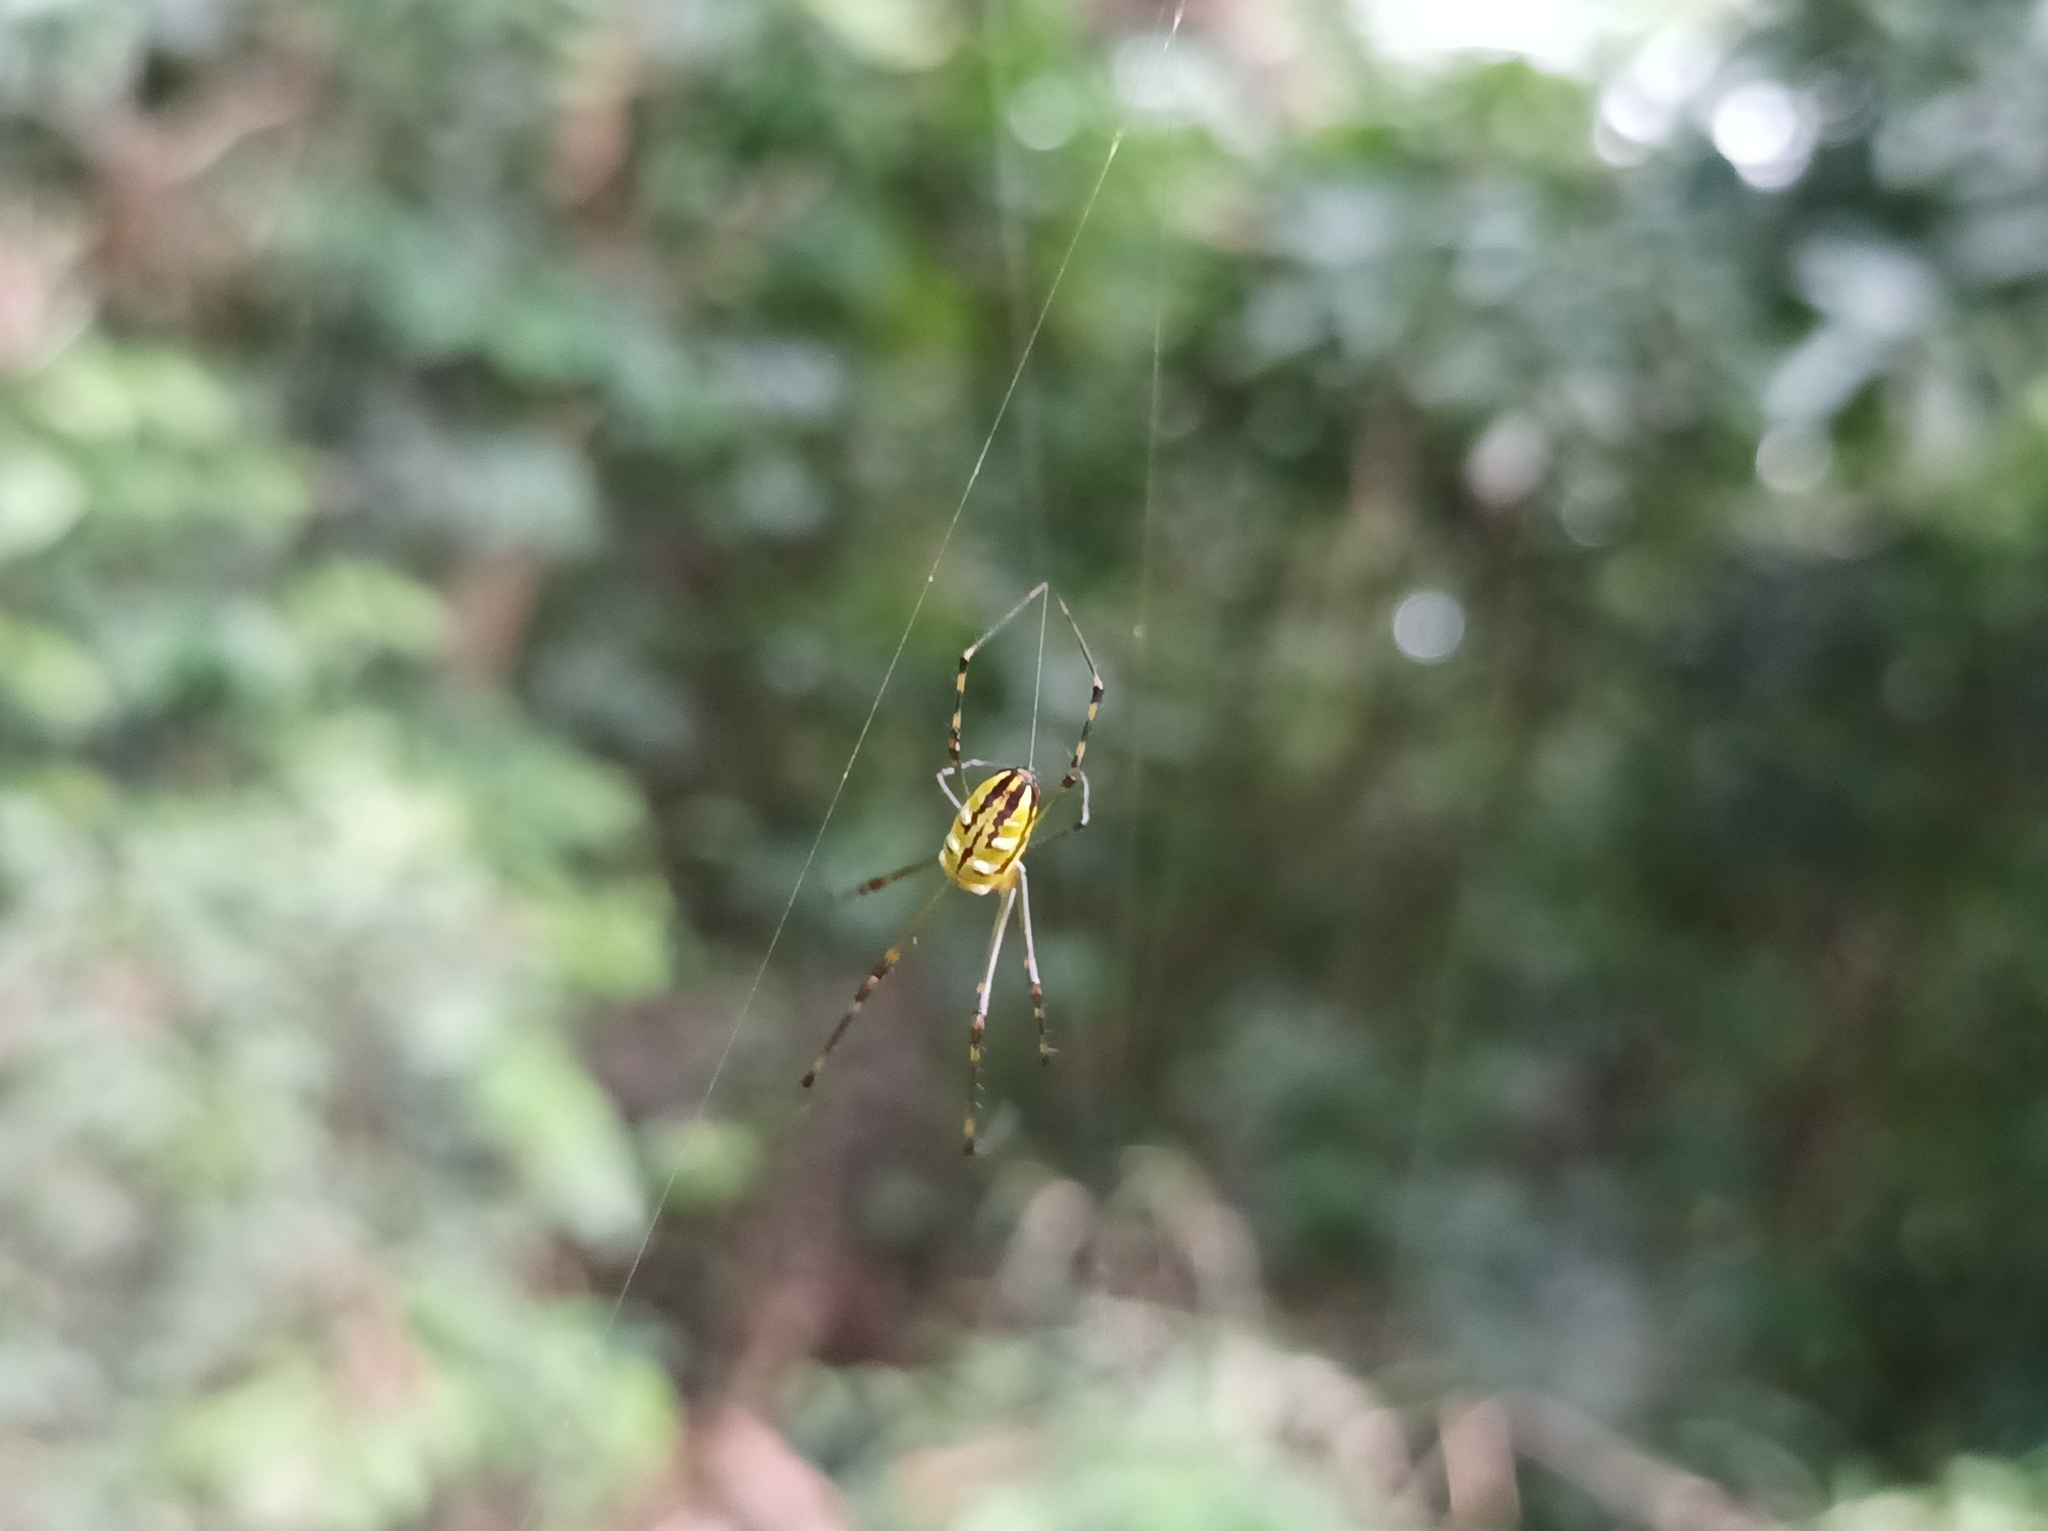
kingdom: Animalia
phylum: Arthropoda
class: Arachnida
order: Araneae
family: Tetragnathidae
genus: Leucauge
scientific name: Leucauge granulata
